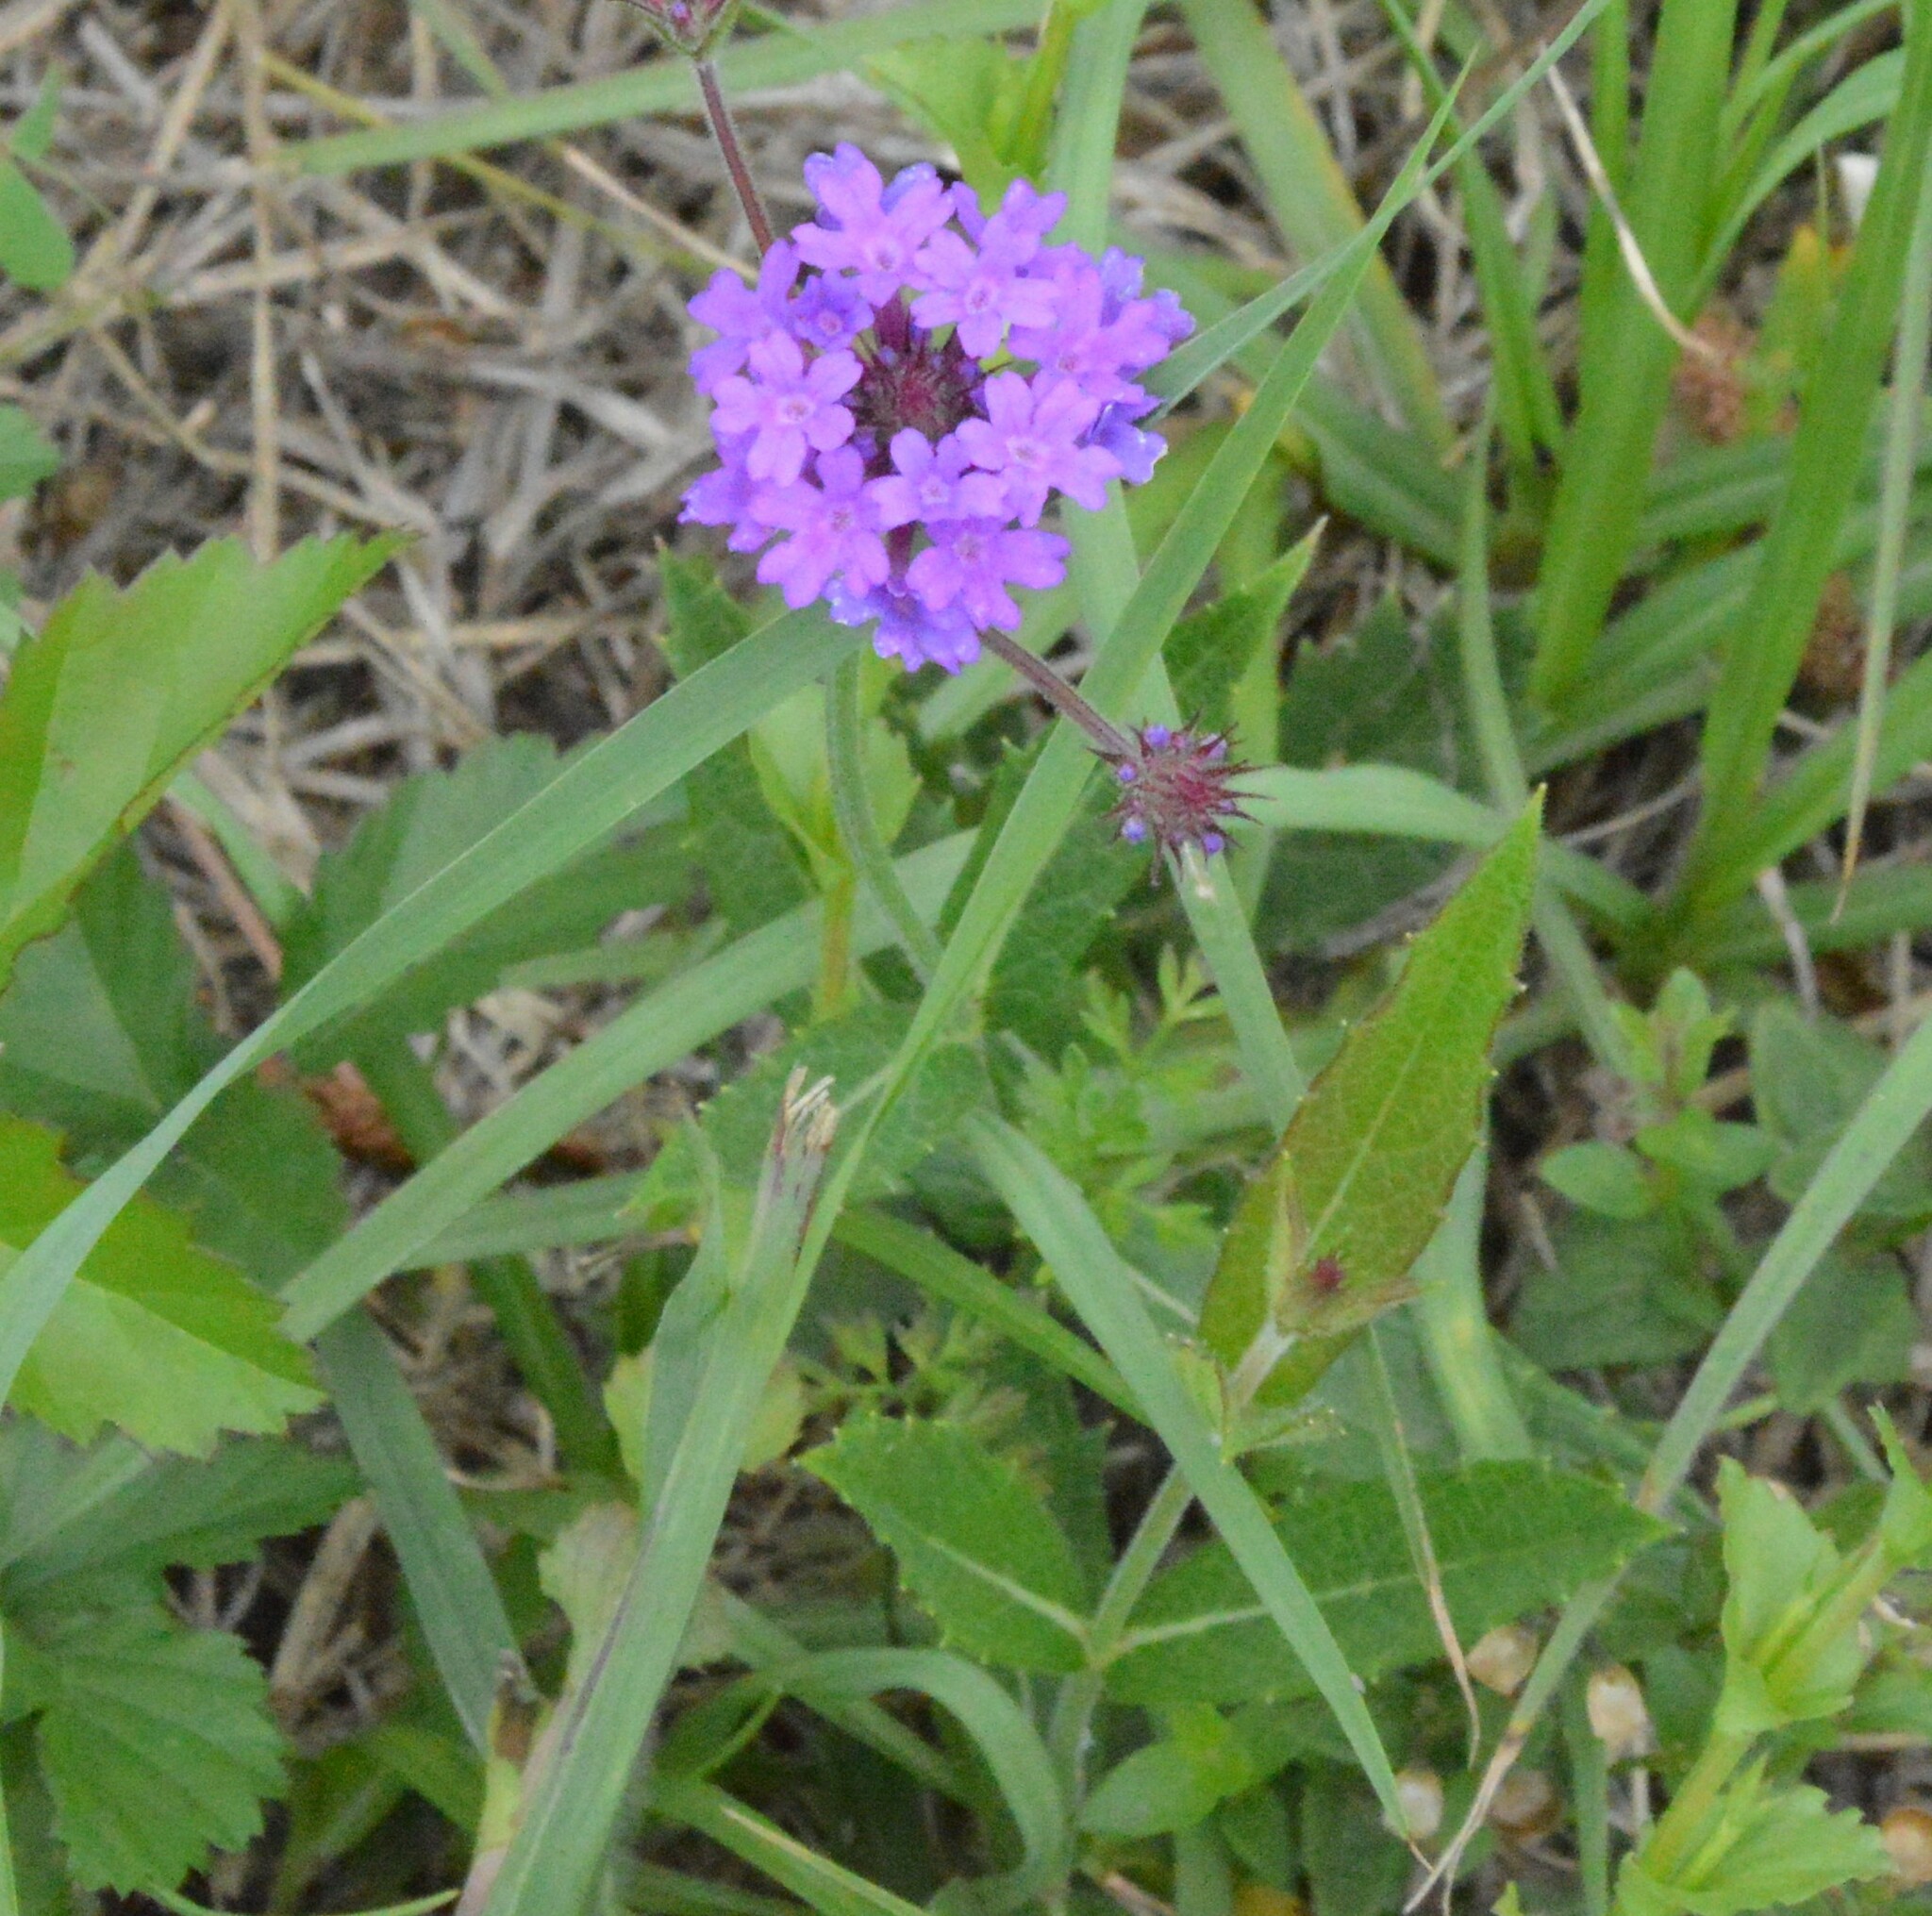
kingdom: Plantae
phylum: Tracheophyta
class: Magnoliopsida
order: Lamiales
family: Verbenaceae
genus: Verbena
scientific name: Verbena rigida
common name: Slender vervain
